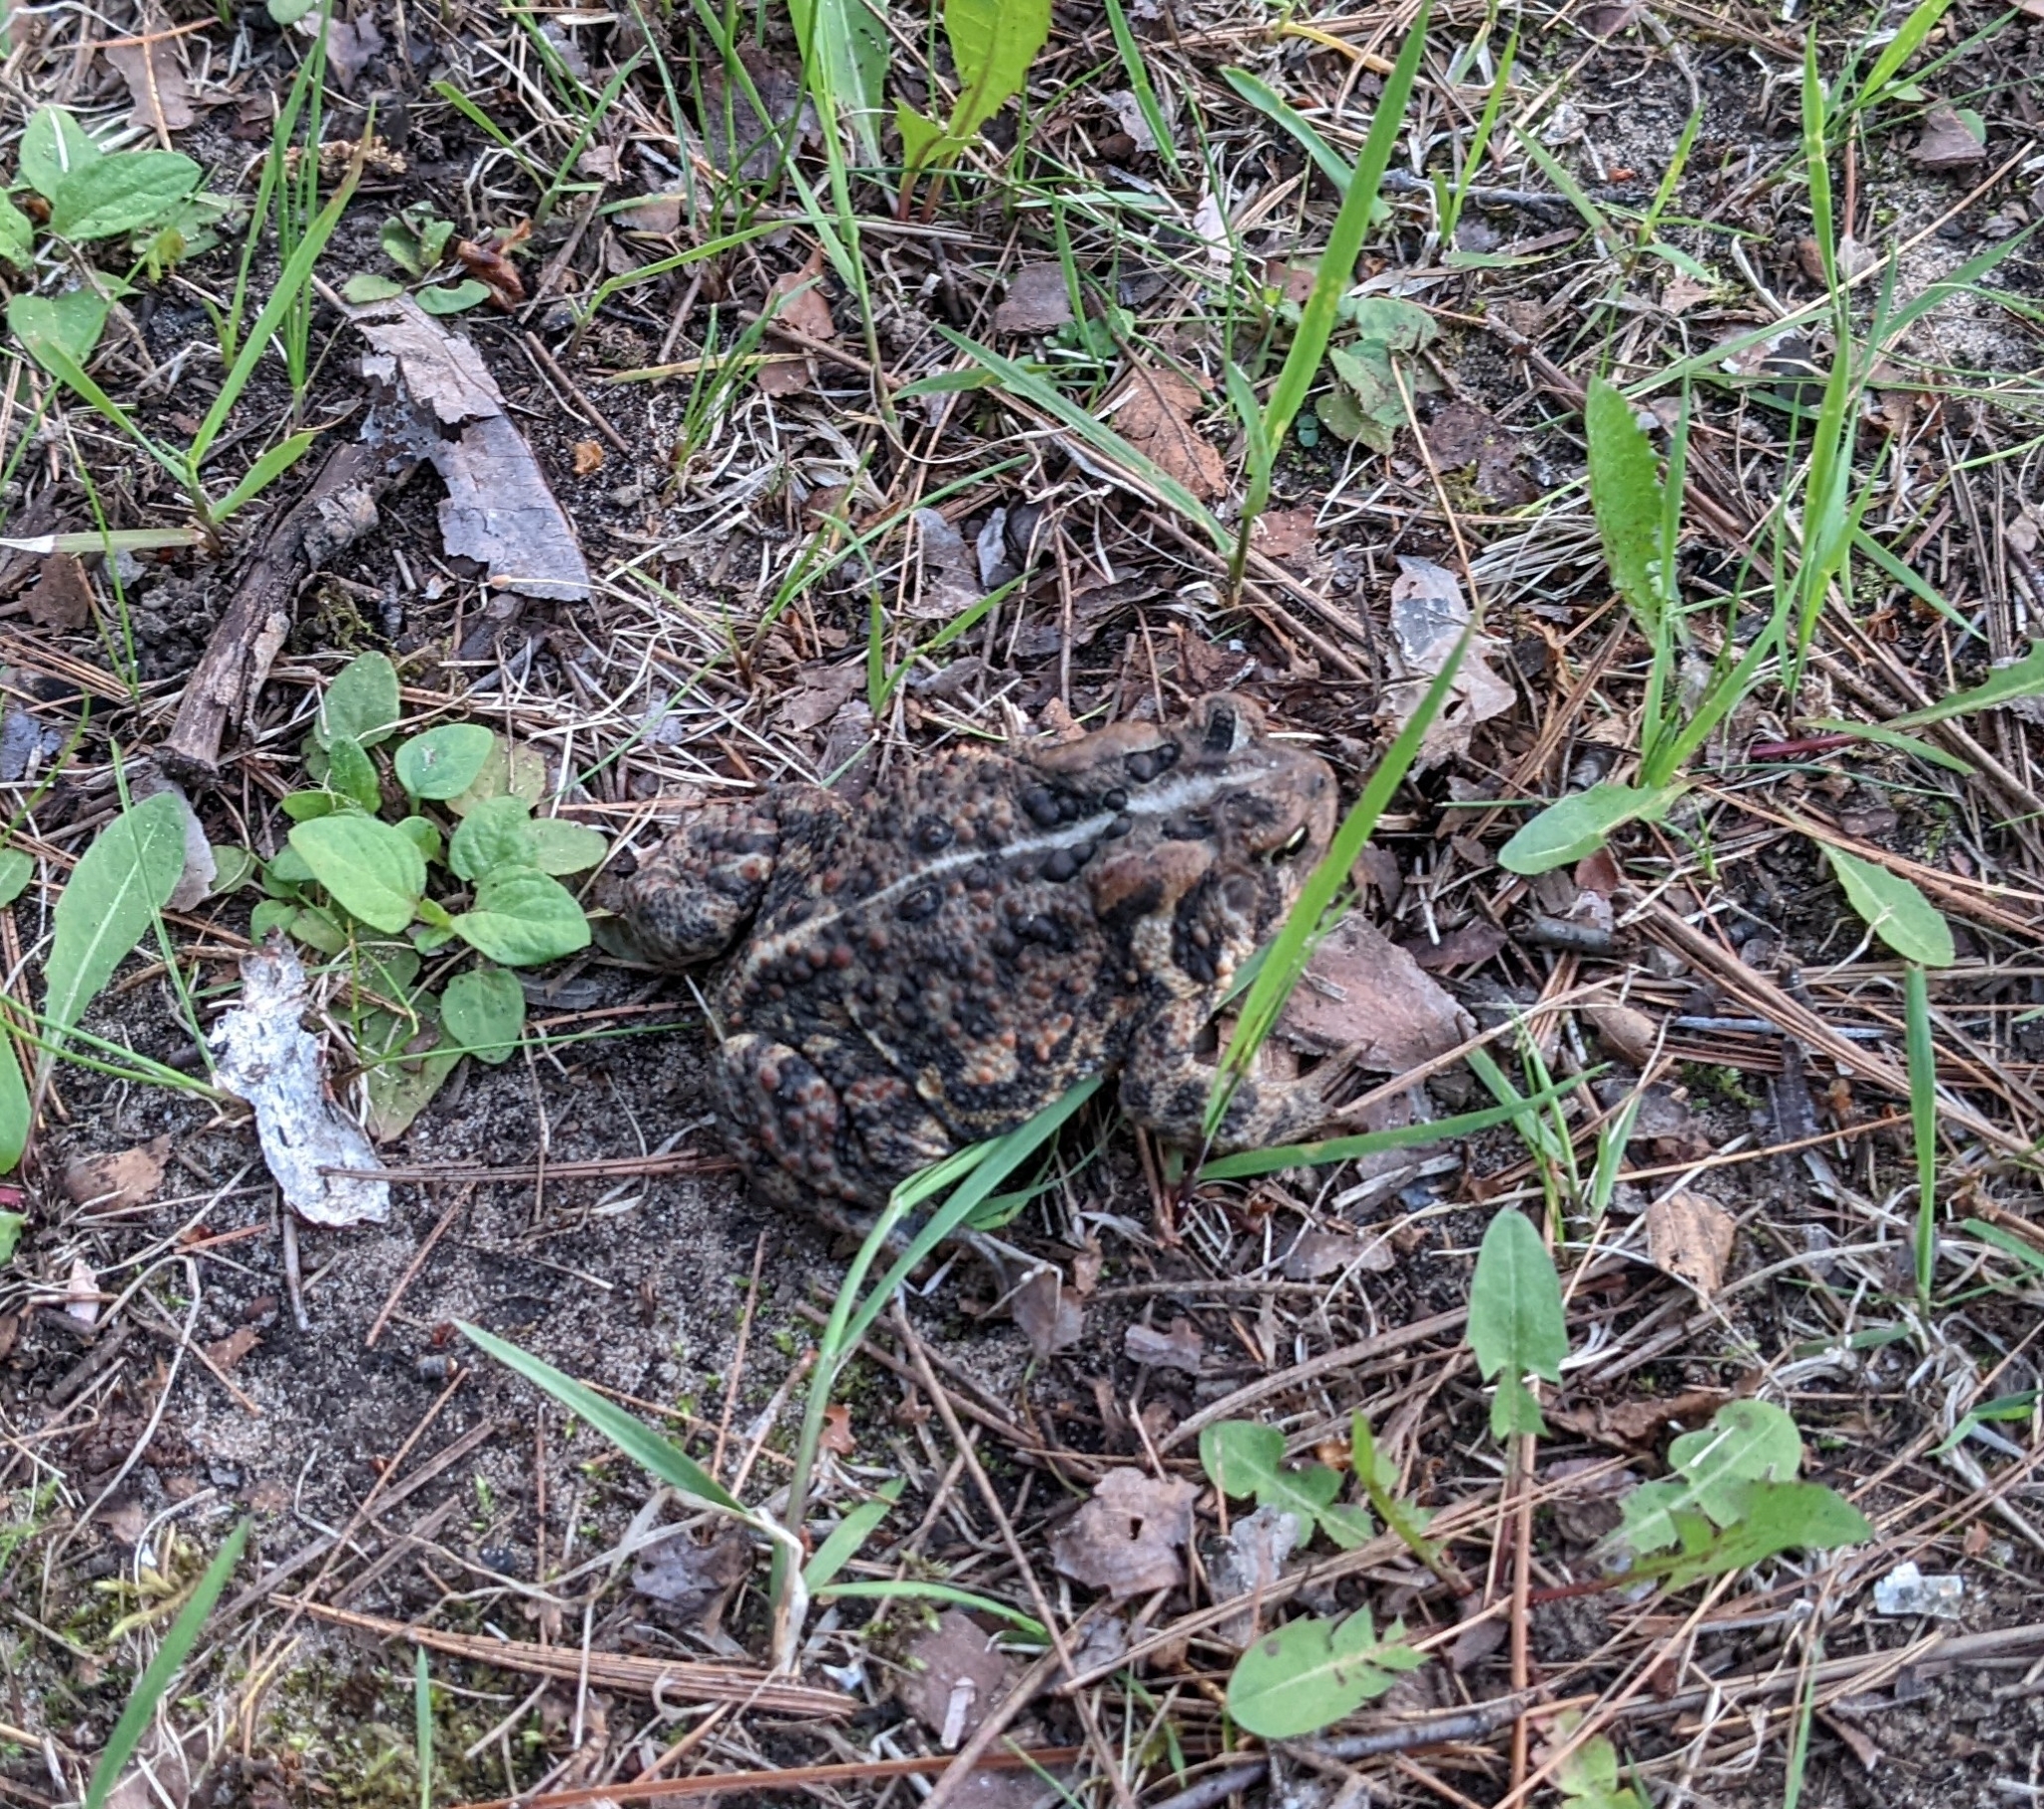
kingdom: Animalia
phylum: Chordata
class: Amphibia
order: Anura
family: Bufonidae
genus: Anaxyrus
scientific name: Anaxyrus americanus
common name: American toad
